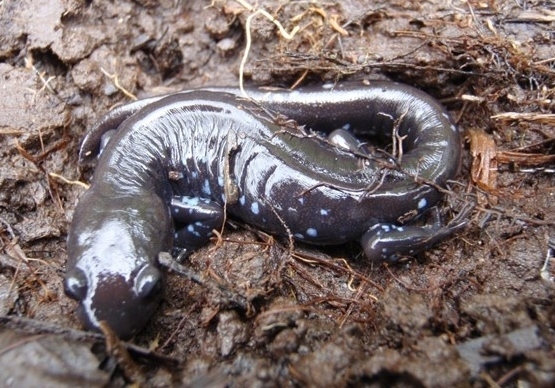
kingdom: Animalia
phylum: Chordata
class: Amphibia
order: Caudata
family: Ambystomatidae
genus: Ambystoma
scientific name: Ambystoma laterale
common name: Blue-spotted salamander
